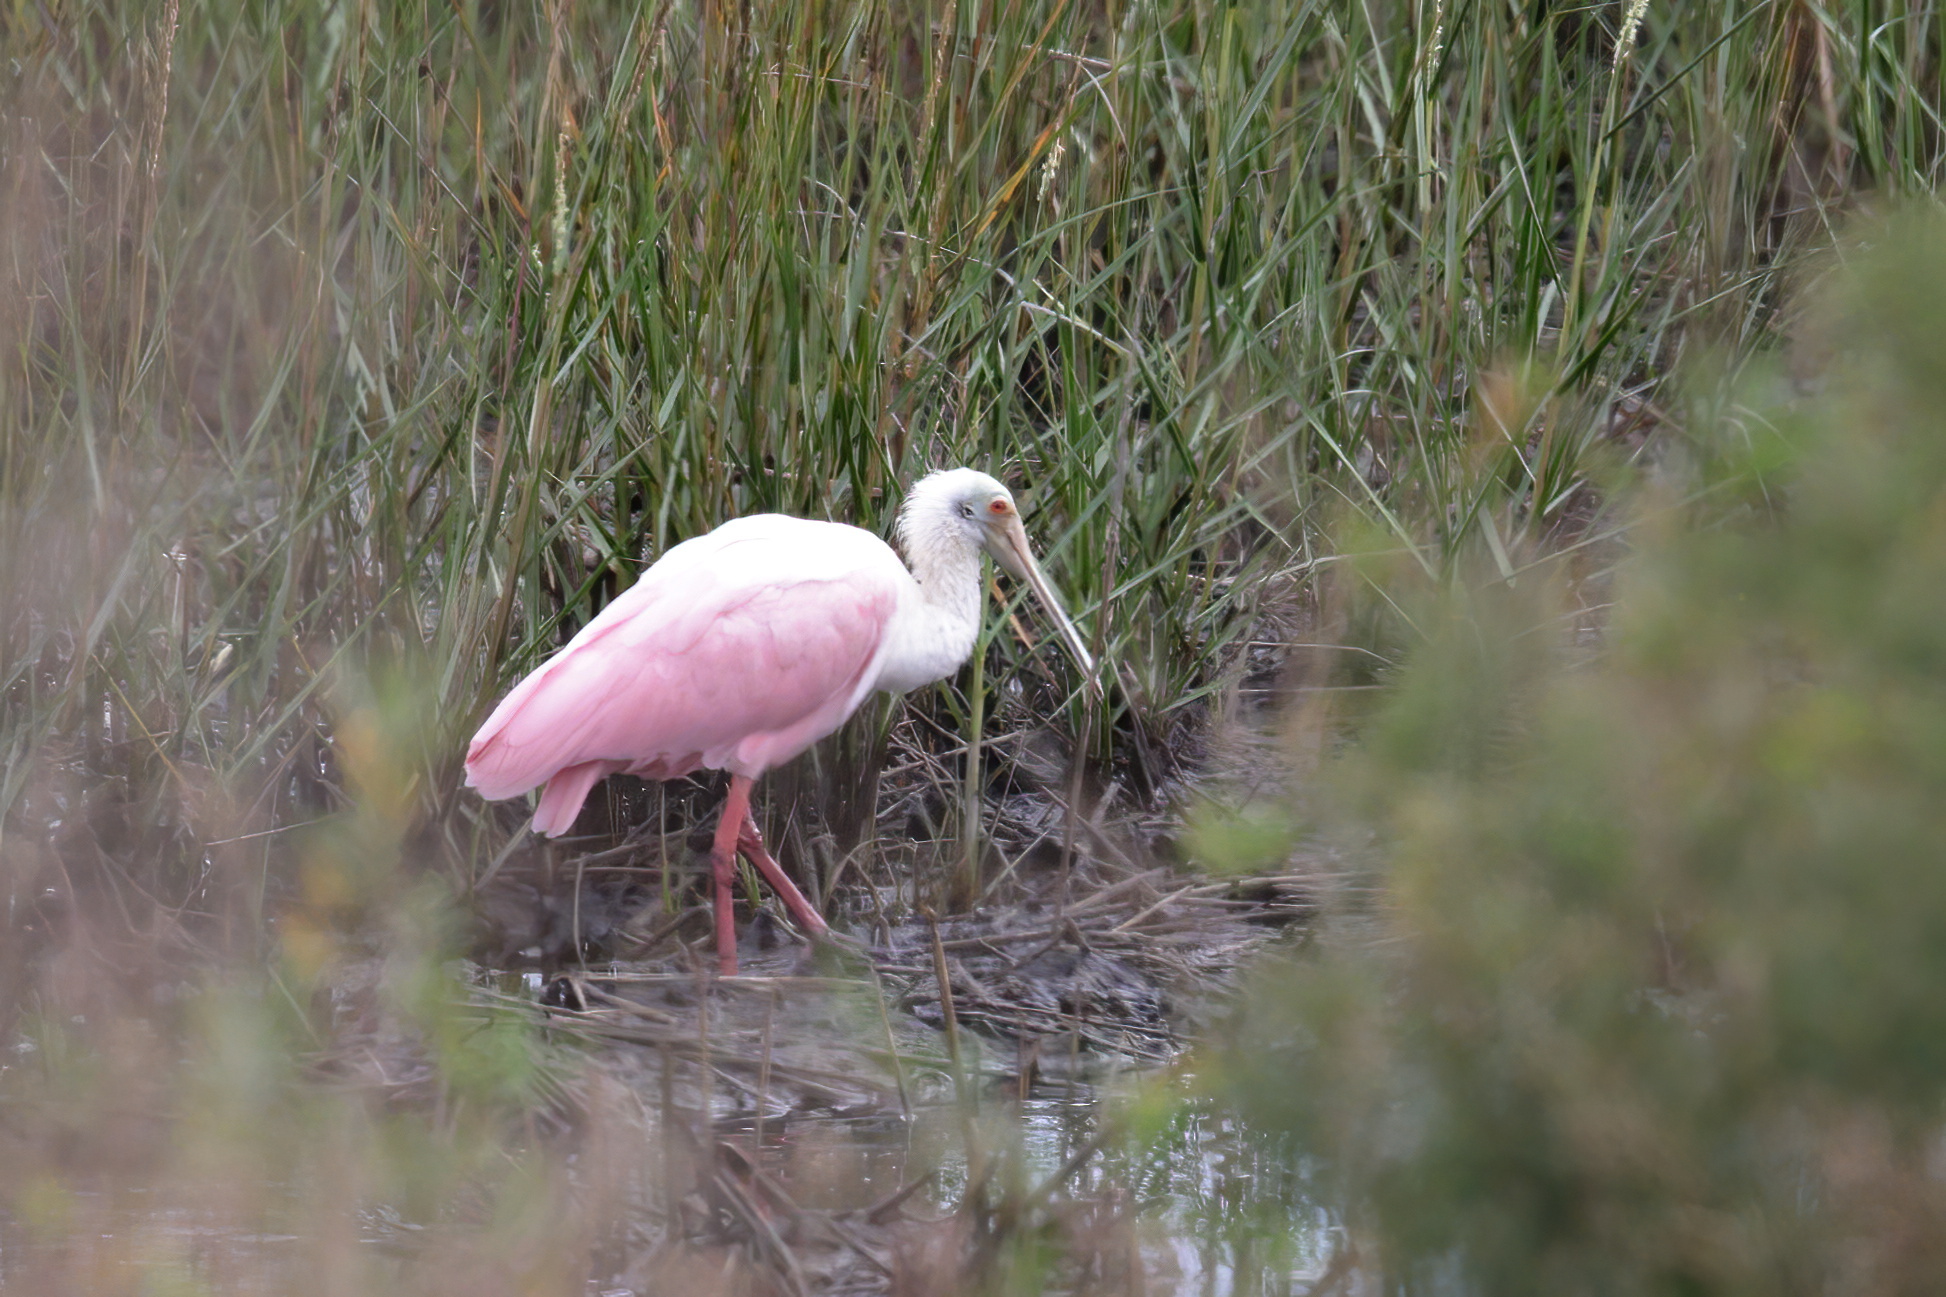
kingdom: Animalia
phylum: Chordata
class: Aves
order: Pelecaniformes
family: Threskiornithidae
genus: Platalea
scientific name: Platalea ajaja
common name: Roseate spoonbill
